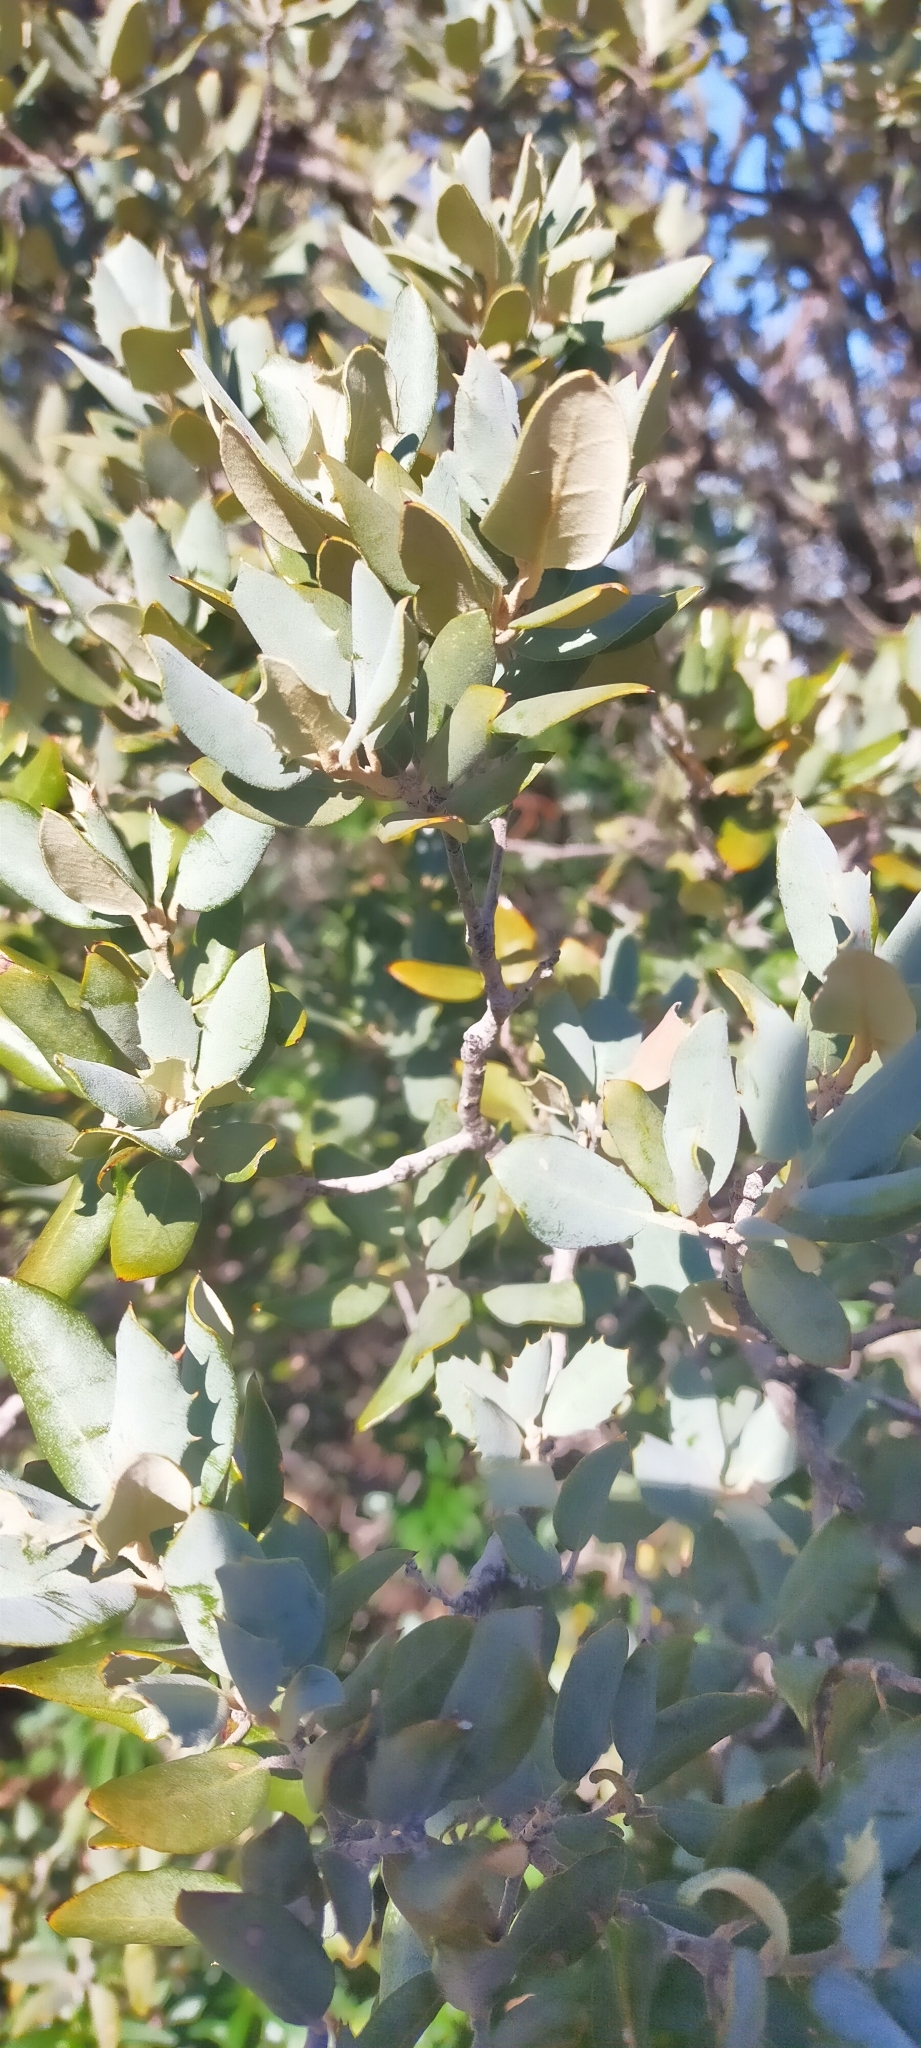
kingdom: Plantae
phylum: Tracheophyta
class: Magnoliopsida
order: Fagales
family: Fagaceae
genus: Quercus
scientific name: Quercus rotundifolia
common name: Holm oak
